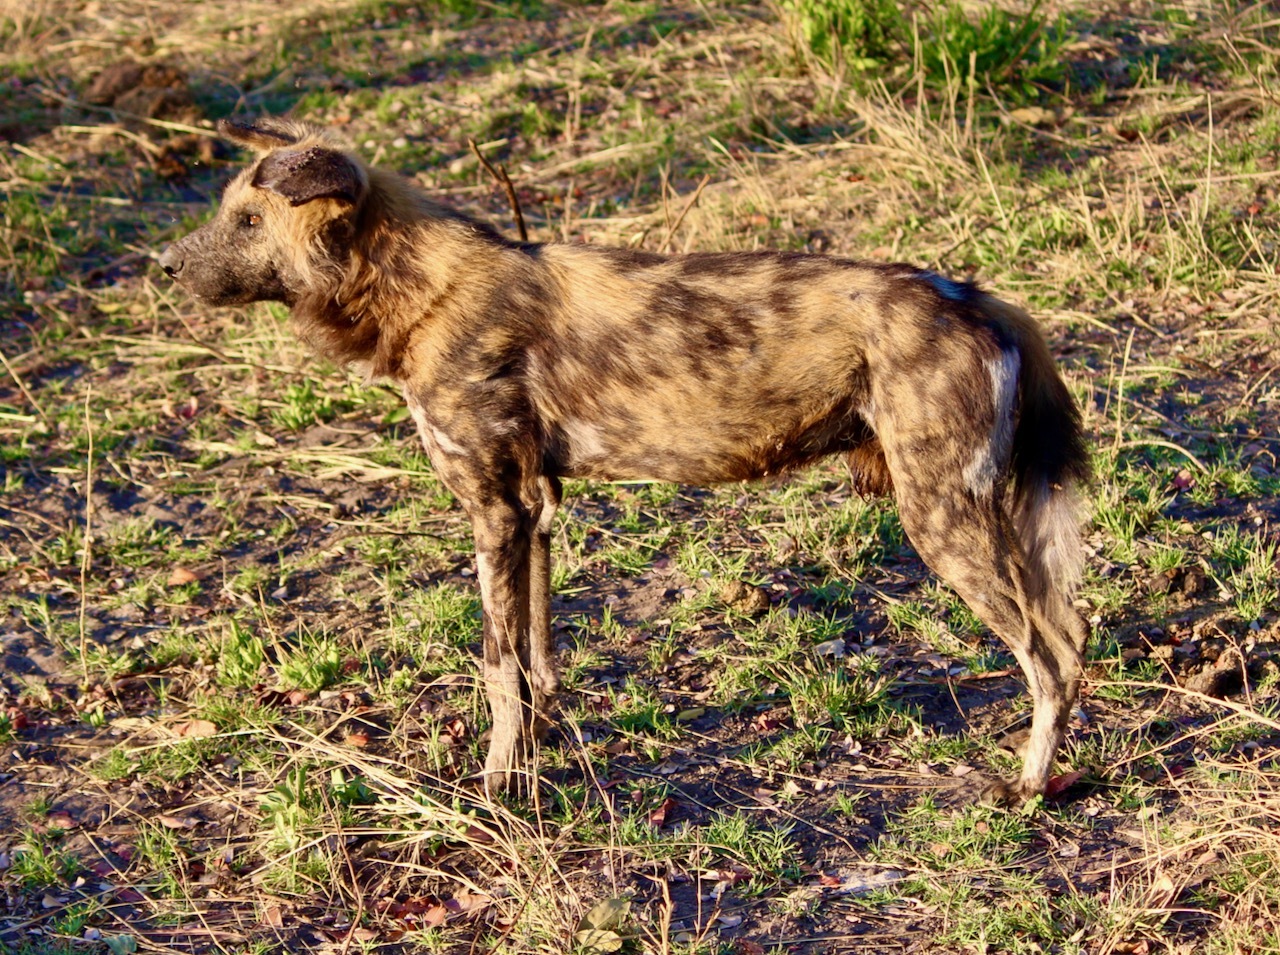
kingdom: Animalia
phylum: Chordata
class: Mammalia
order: Carnivora
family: Canidae
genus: Lycaon
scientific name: Lycaon pictus
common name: African wild dog
